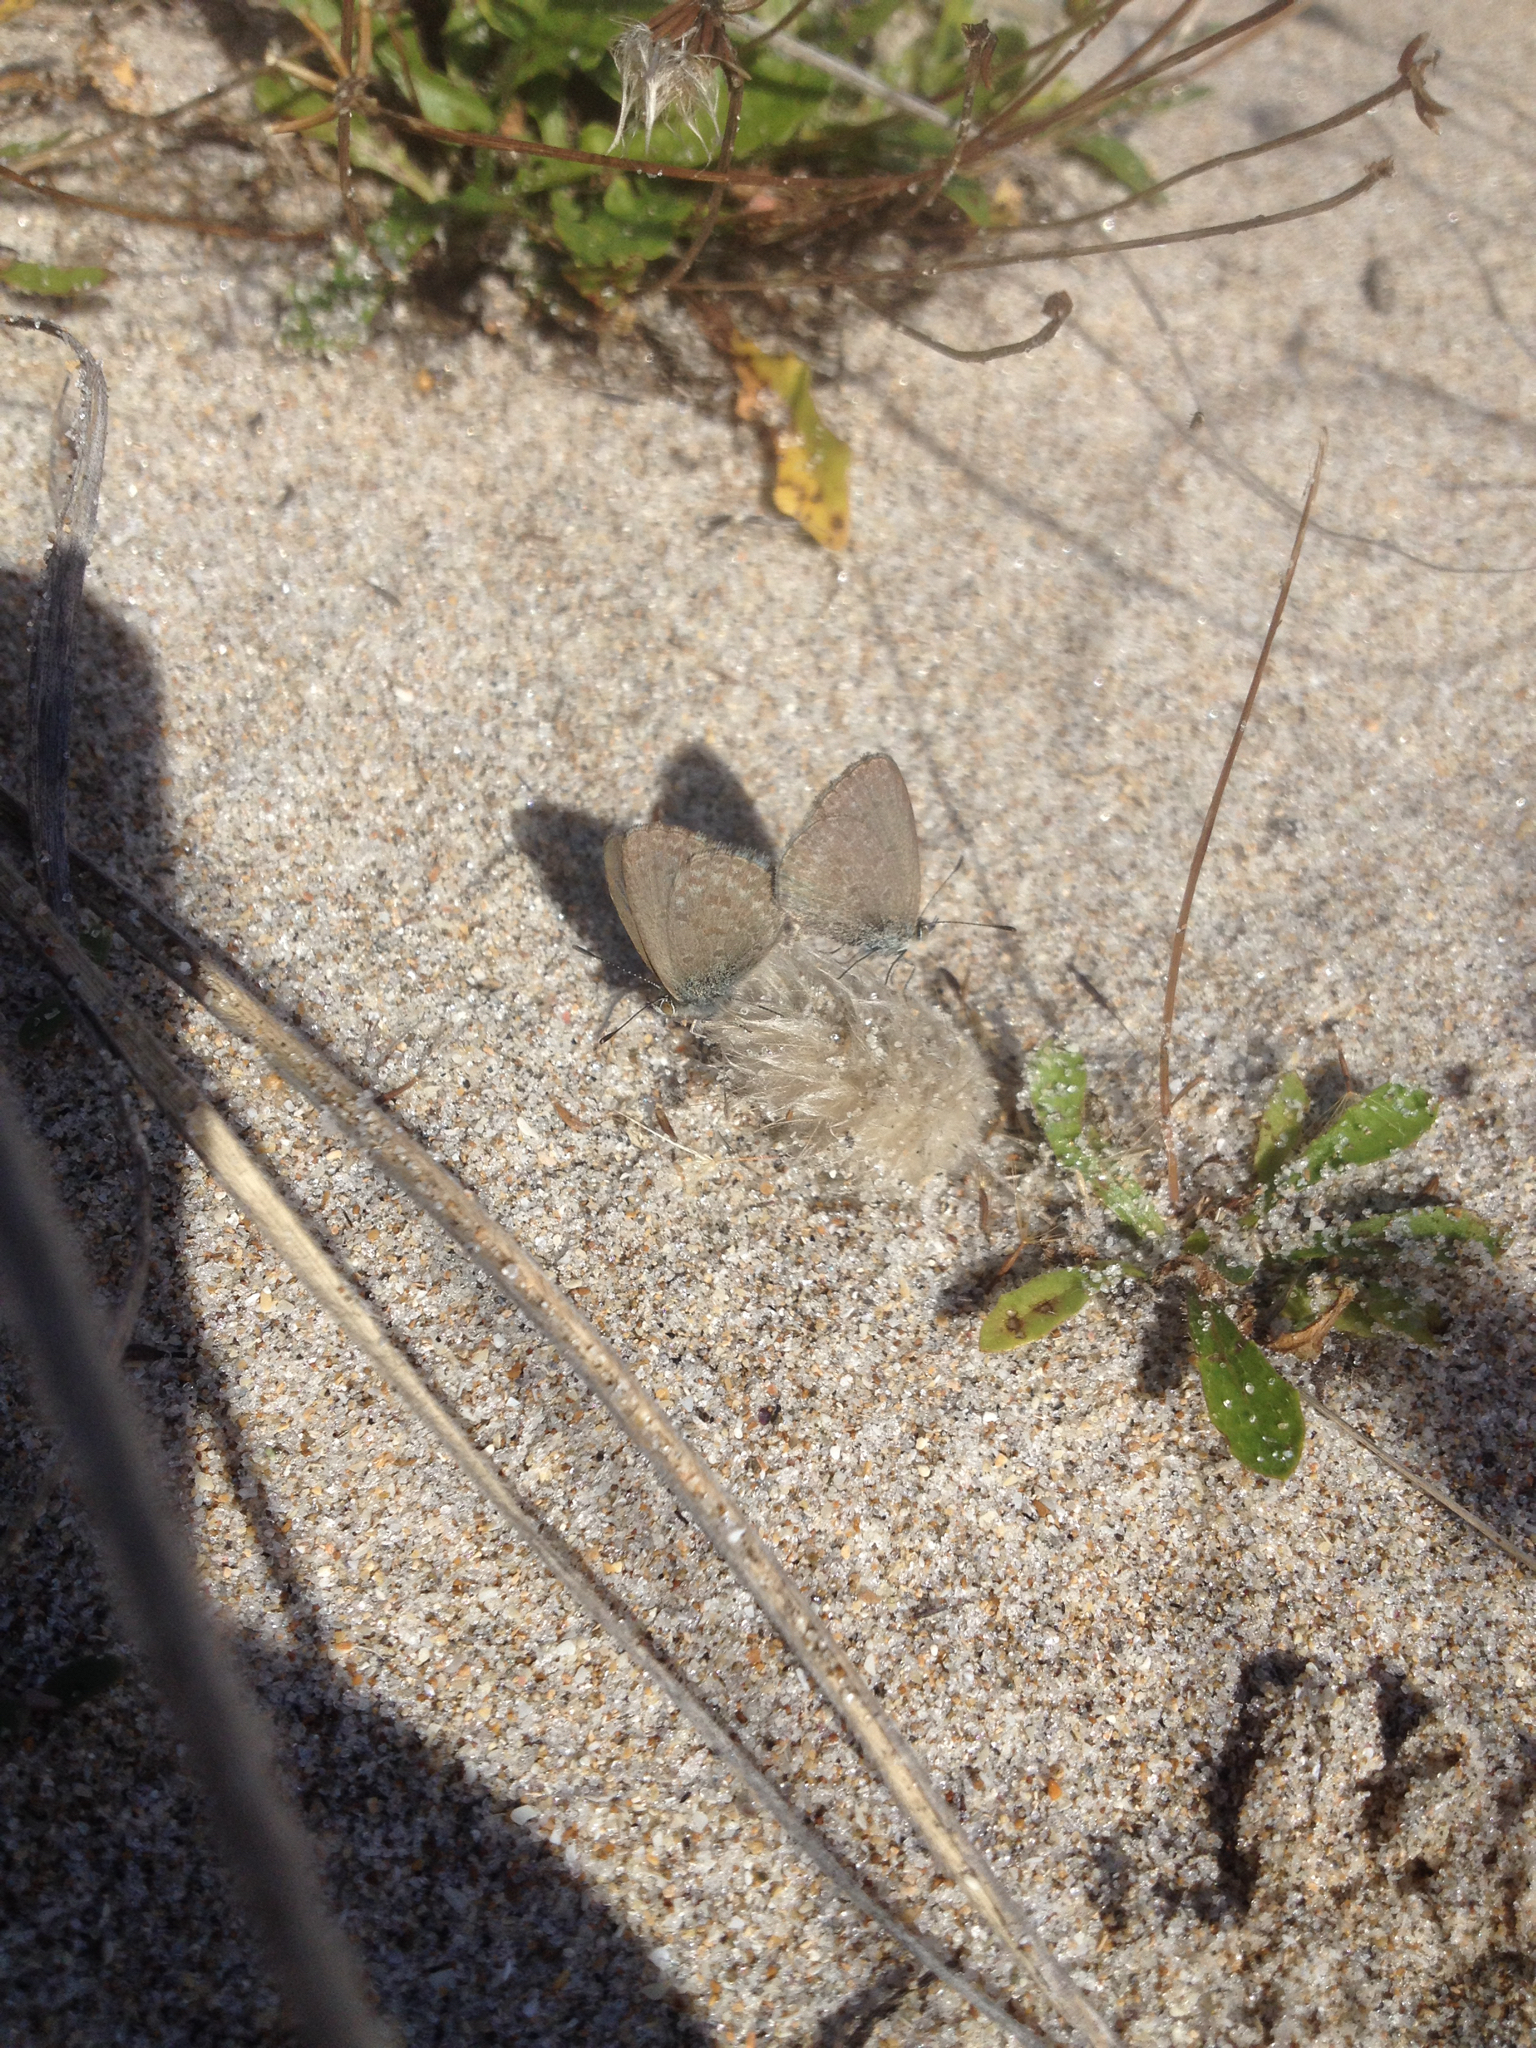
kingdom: Animalia
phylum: Arthropoda
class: Insecta
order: Lepidoptera
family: Lycaenidae
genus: Zizina
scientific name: Zizina labradus
